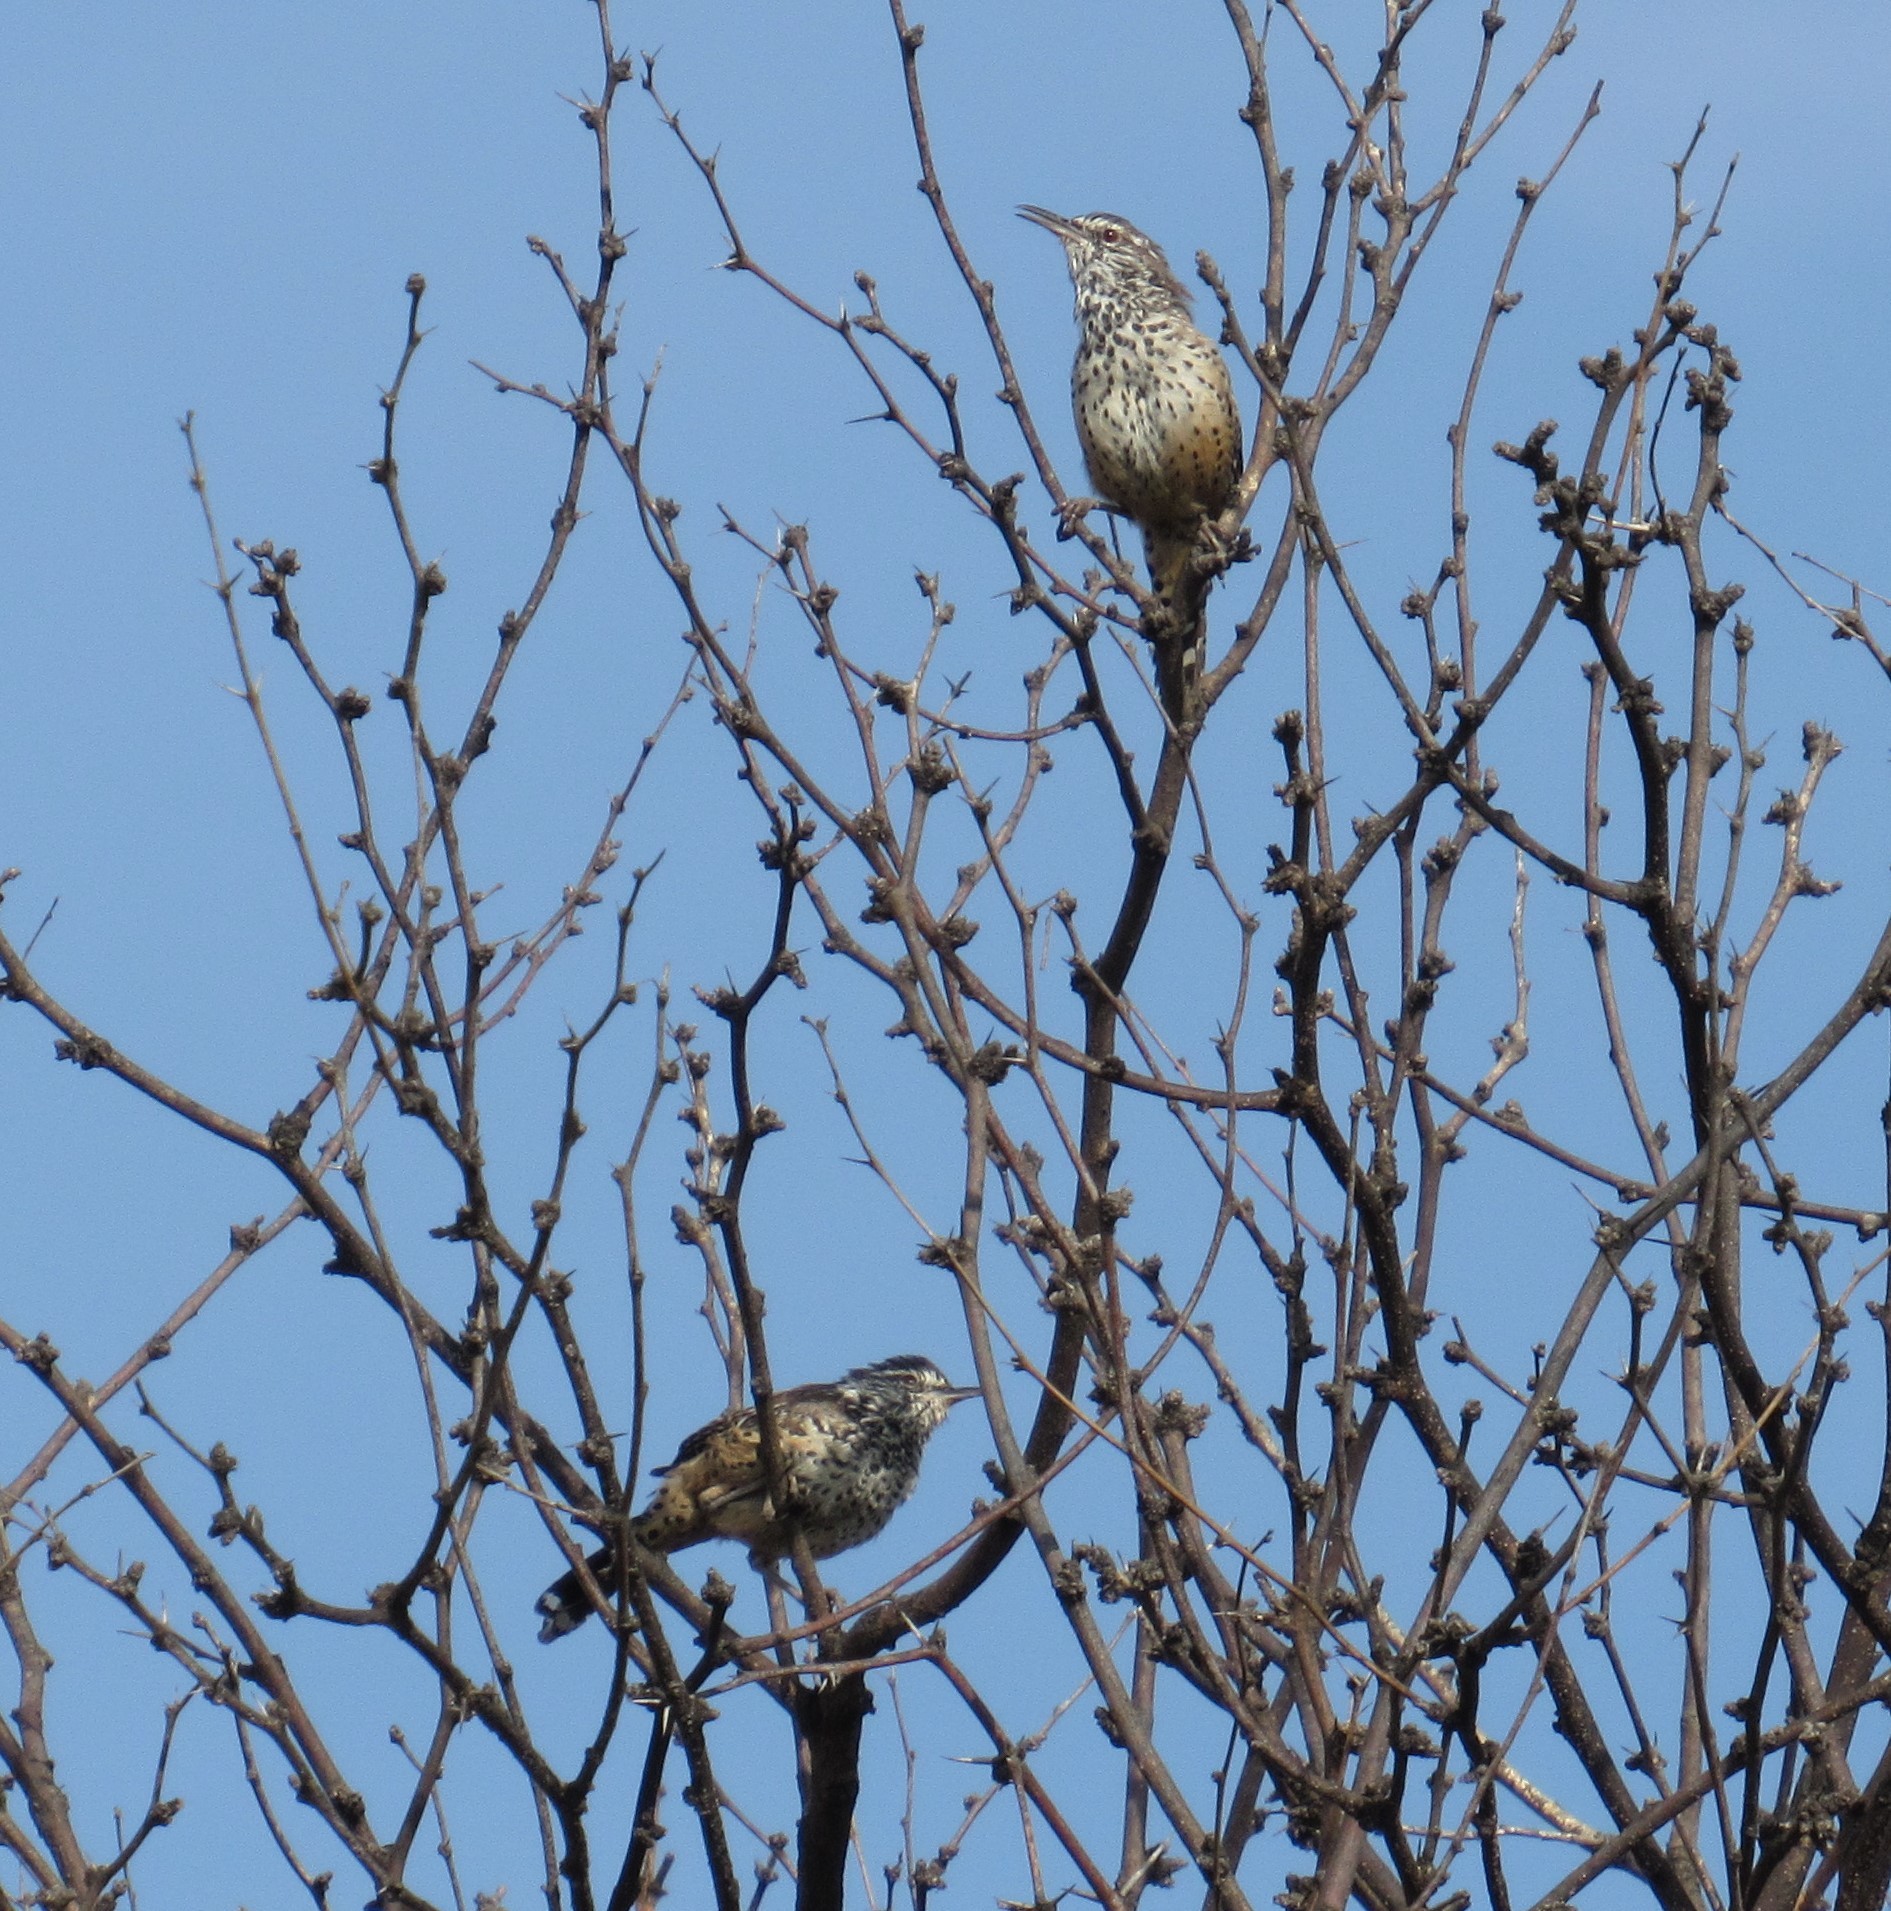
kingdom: Animalia
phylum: Chordata
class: Aves
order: Passeriformes
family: Troglodytidae
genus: Campylorhynchus
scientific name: Campylorhynchus brunneicapillus
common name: Cactus wren
